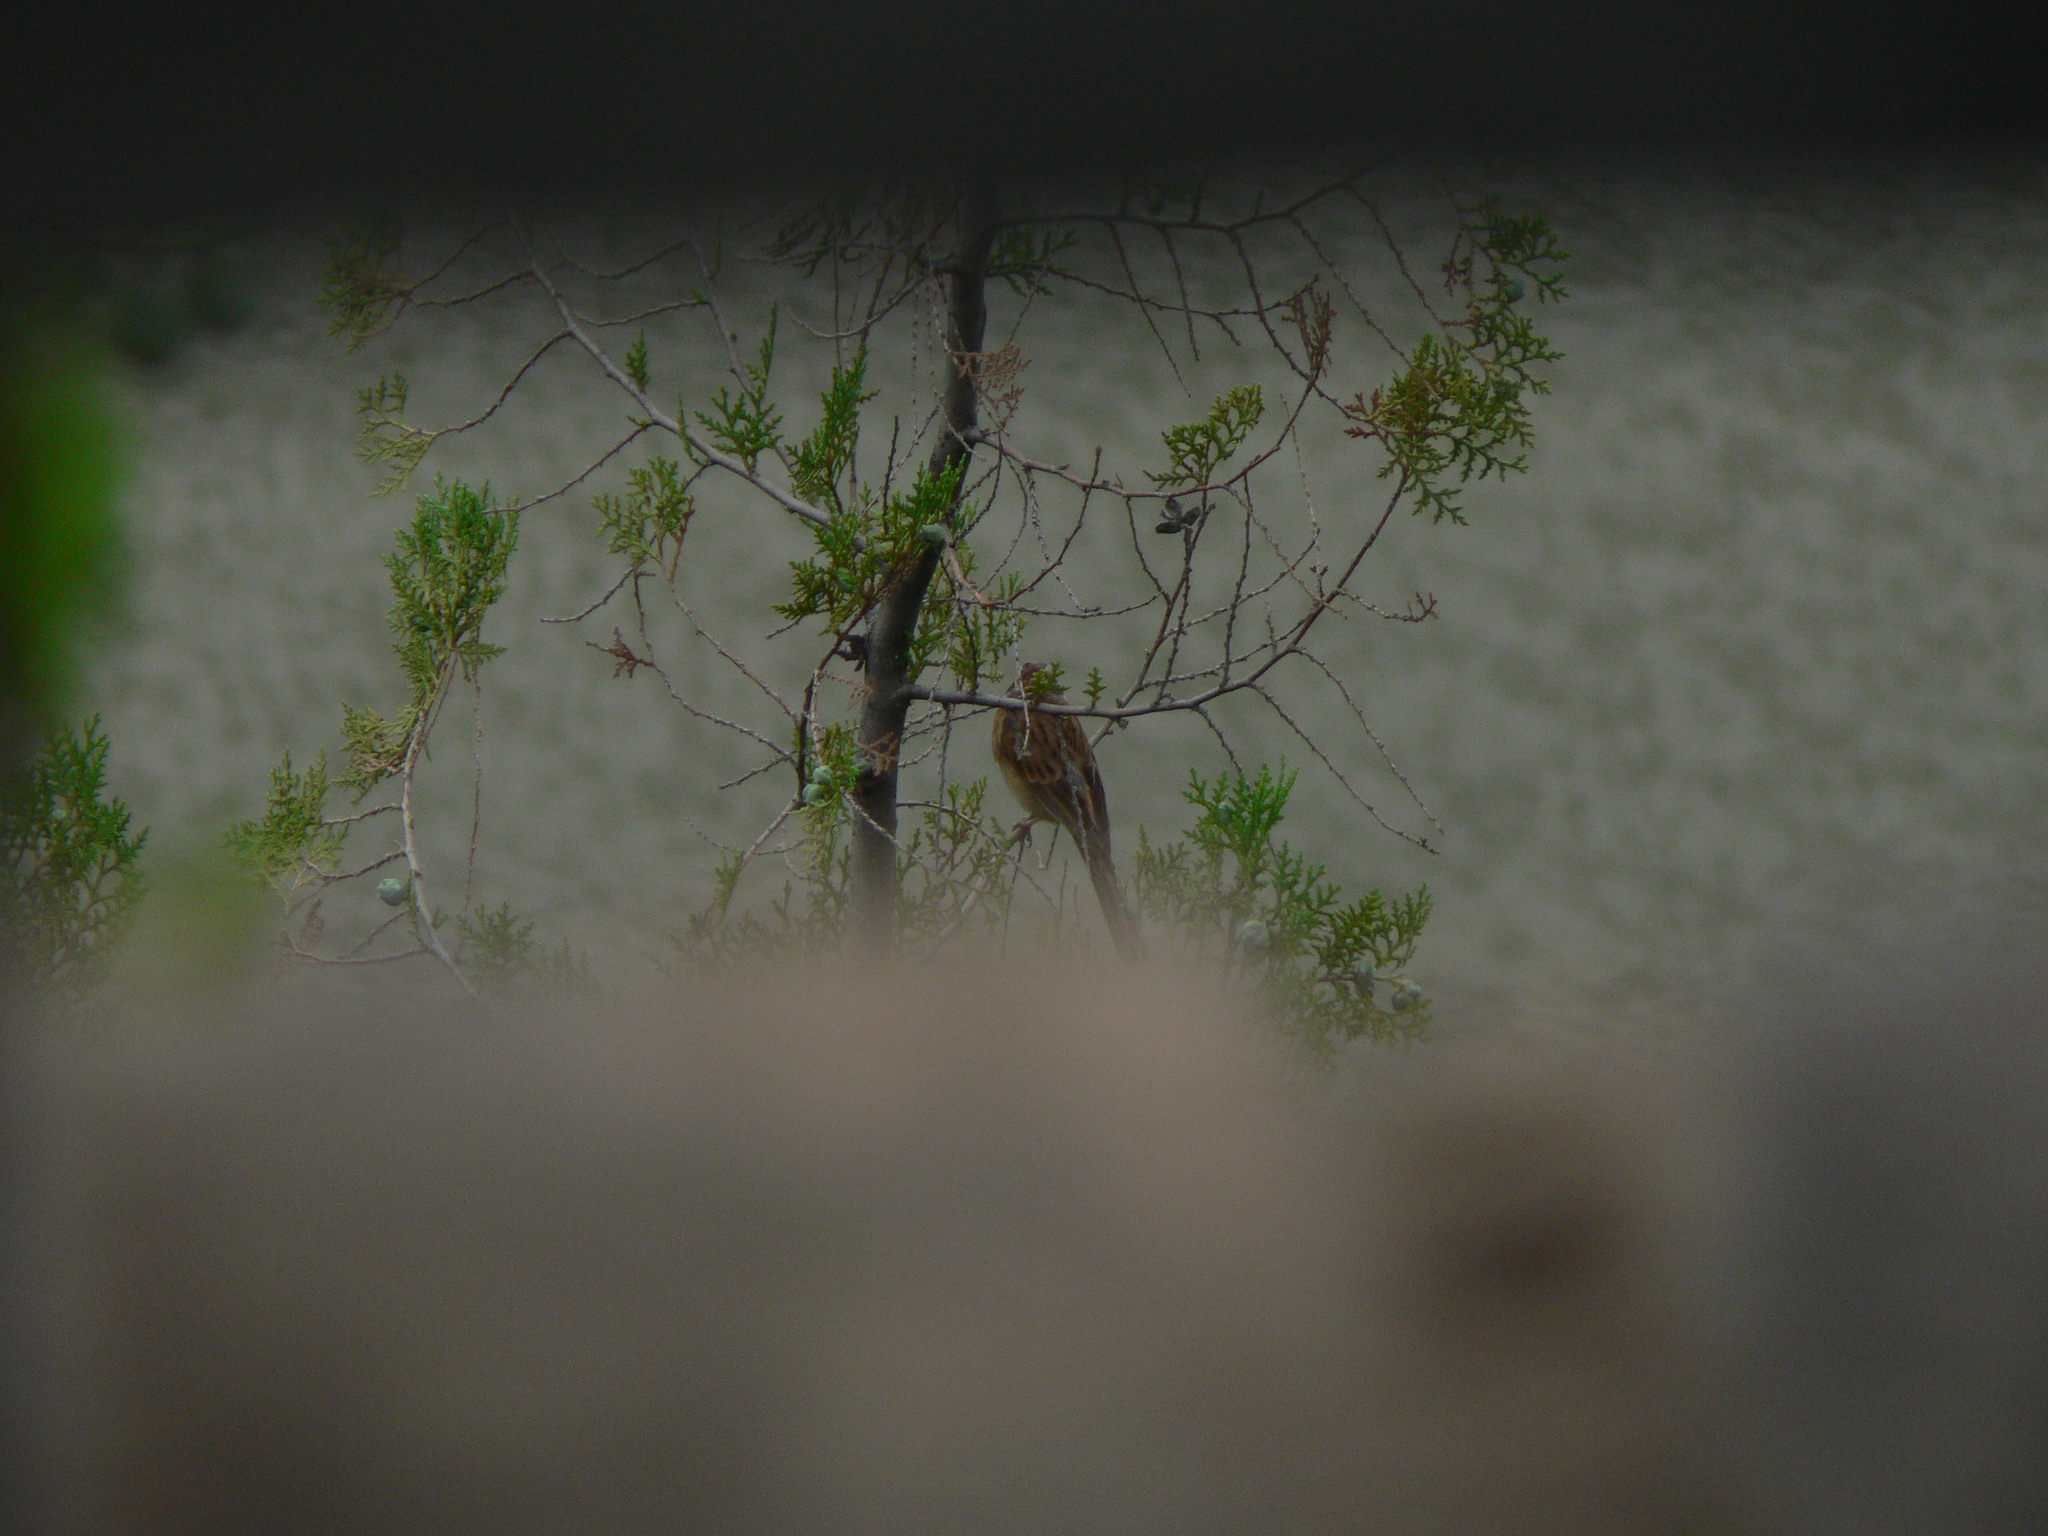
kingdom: Animalia
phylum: Chordata
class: Aves
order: Passeriformes
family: Emberizidae
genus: Emberiza
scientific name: Emberiza cioides
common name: Meadow bunting
